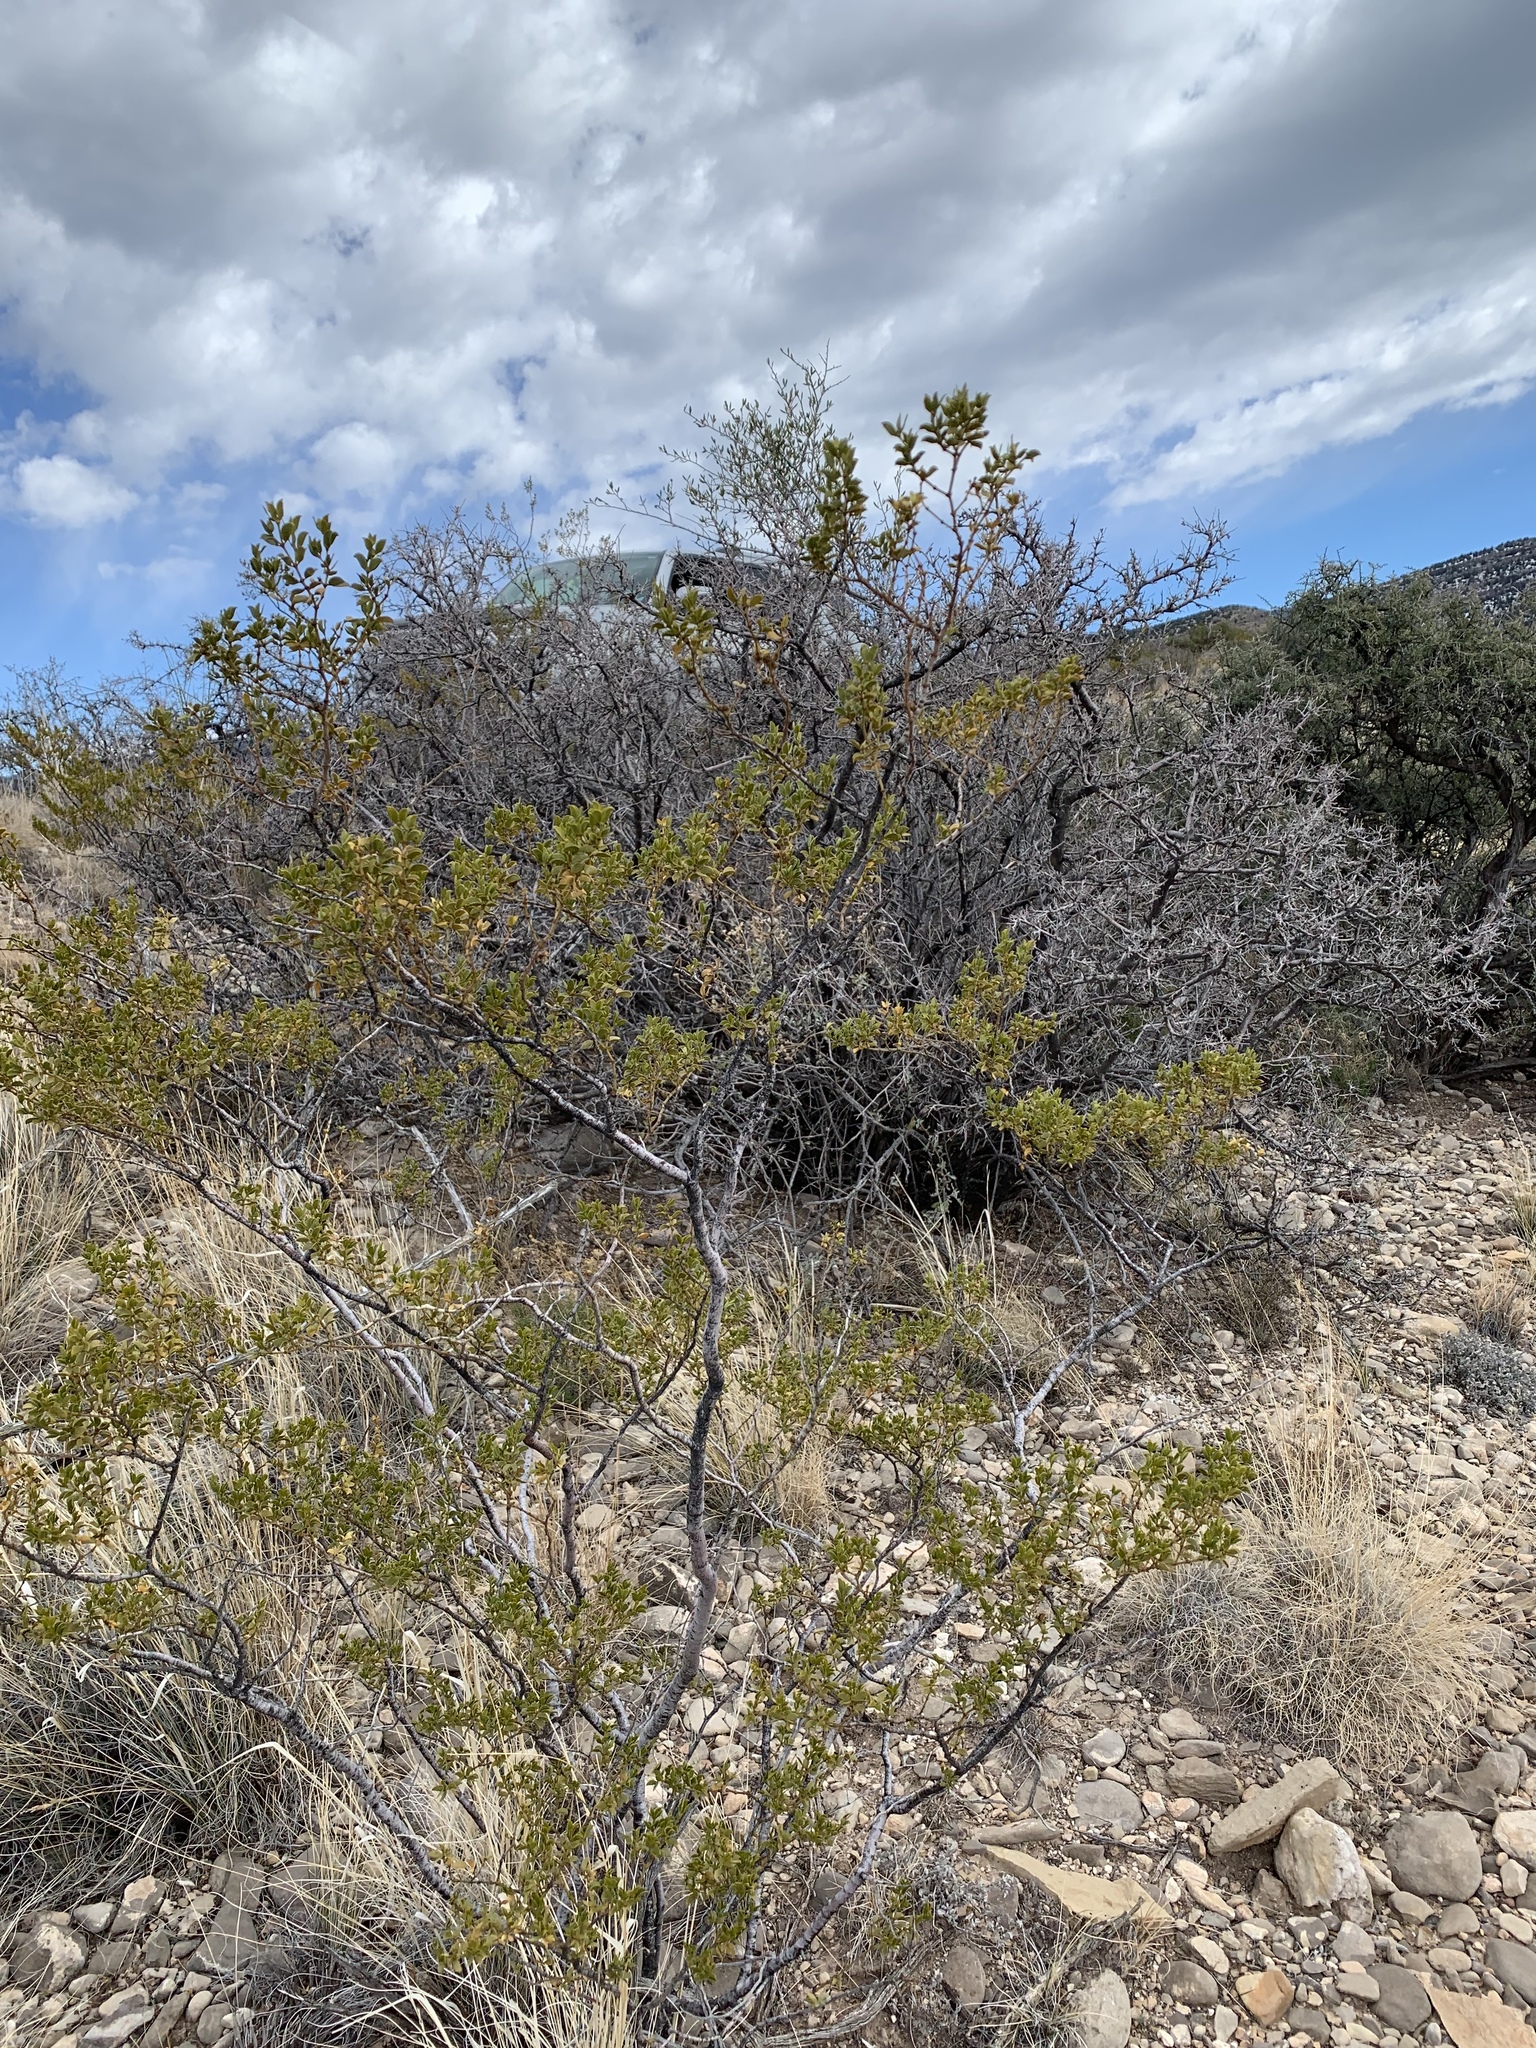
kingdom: Plantae
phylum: Tracheophyta
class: Magnoliopsida
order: Zygophyllales
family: Zygophyllaceae
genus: Larrea
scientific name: Larrea tridentata
